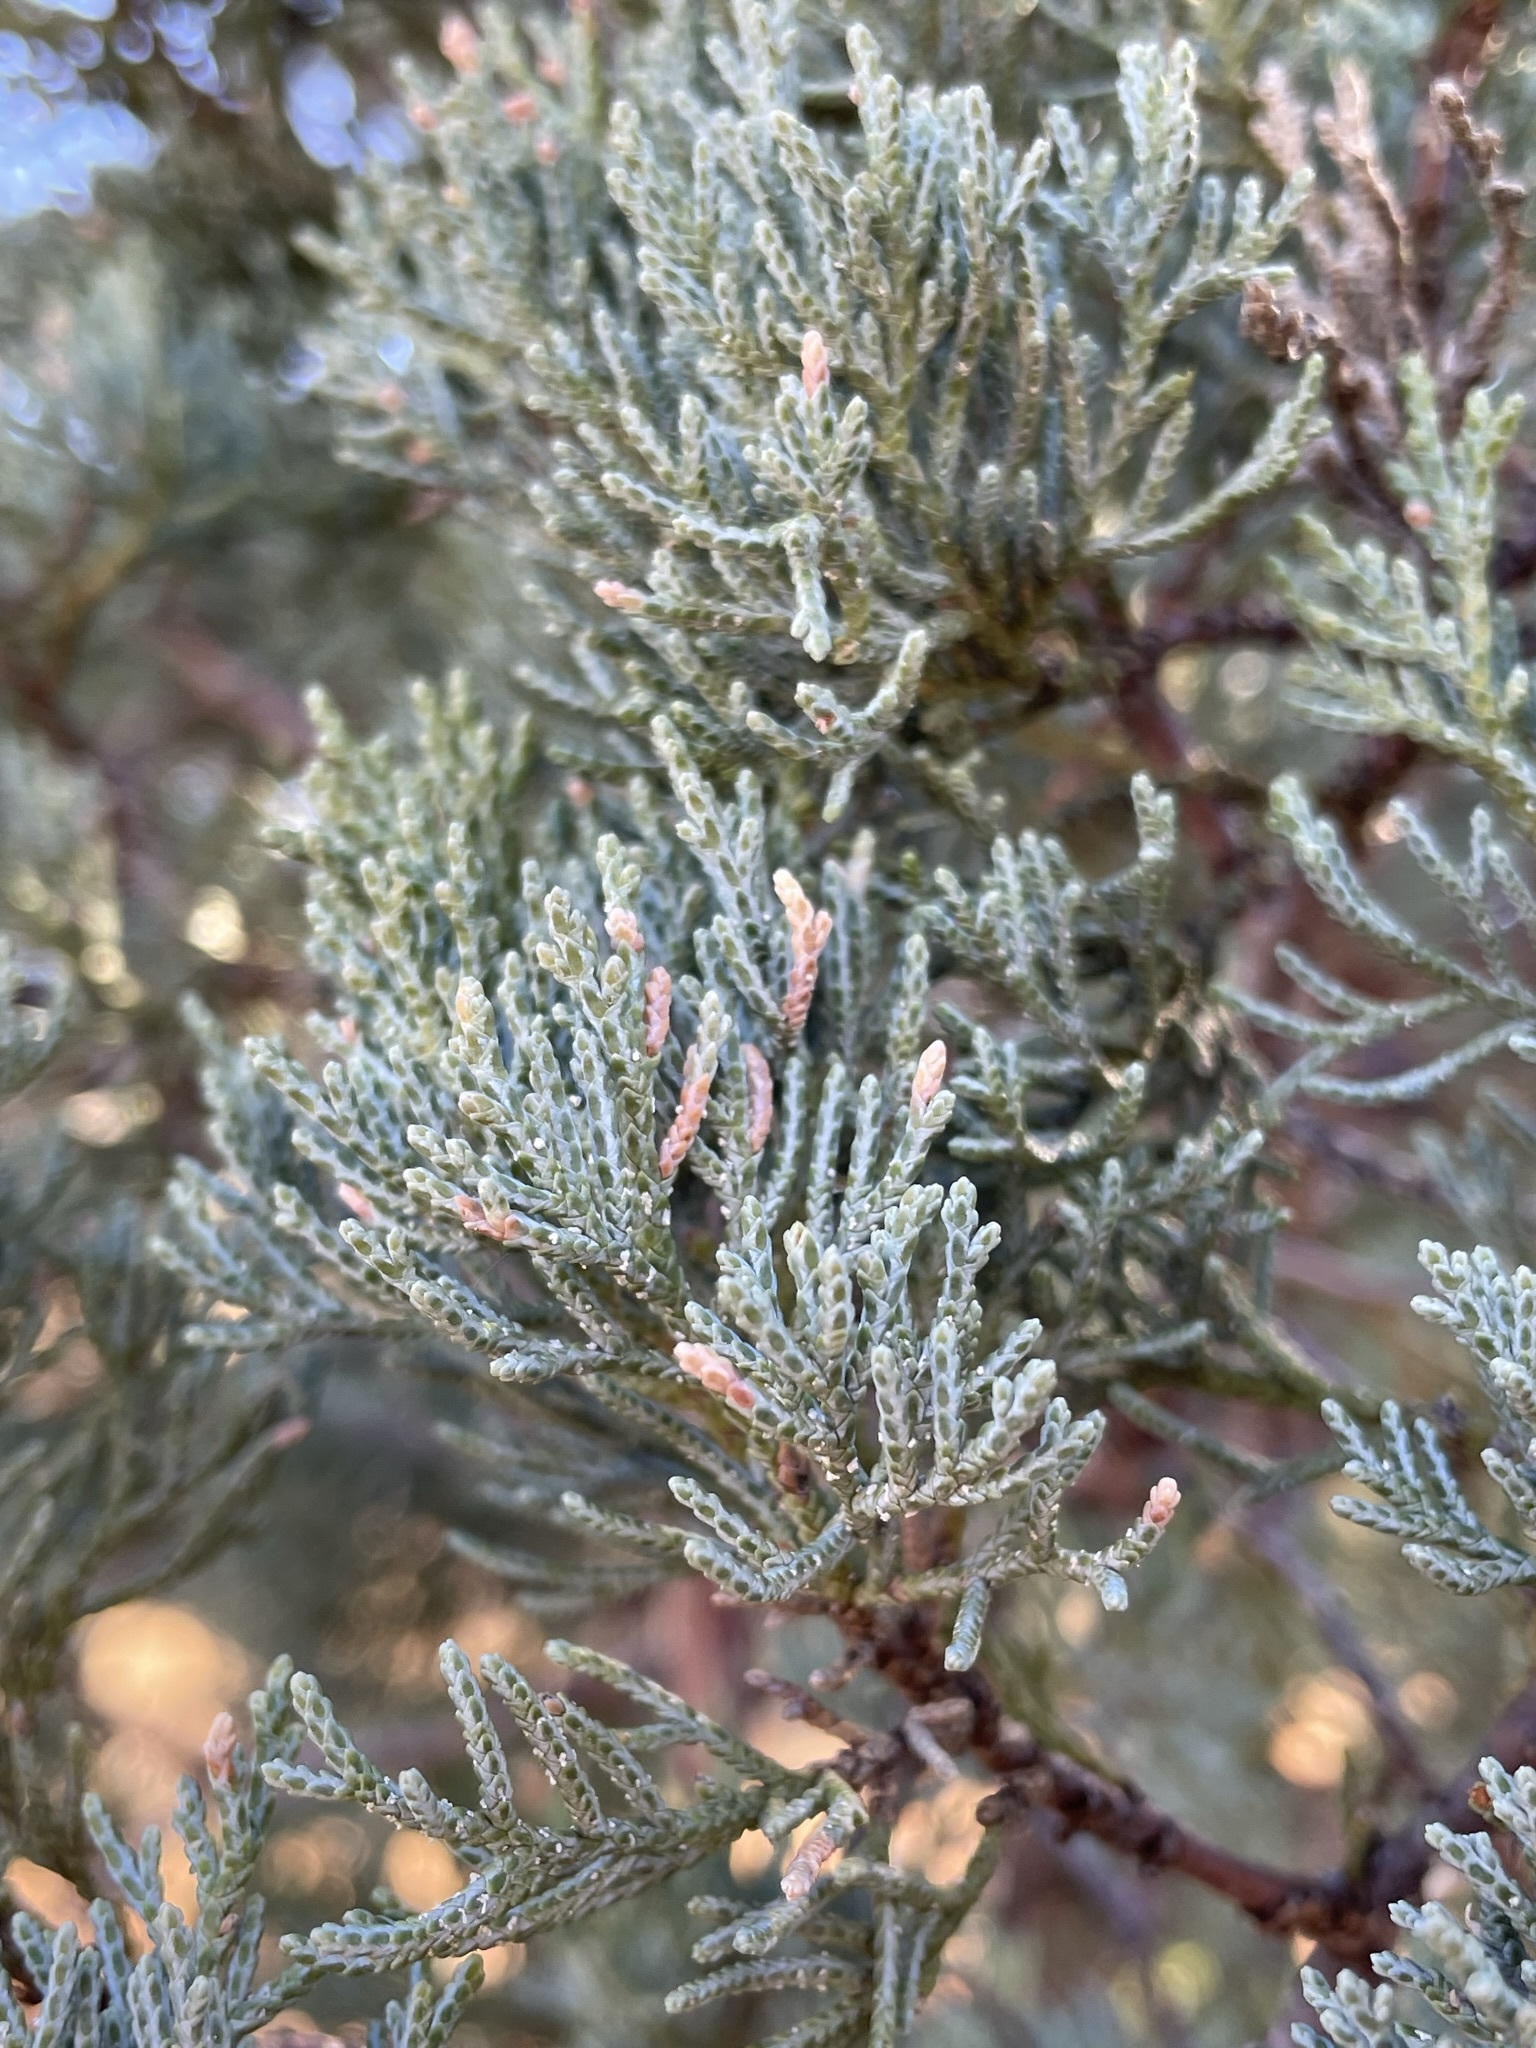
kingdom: Plantae
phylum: Tracheophyta
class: Pinopsida
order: Pinales
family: Cupressaceae
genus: Juniperus
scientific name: Juniperus deppeana
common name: Alligator juniper
